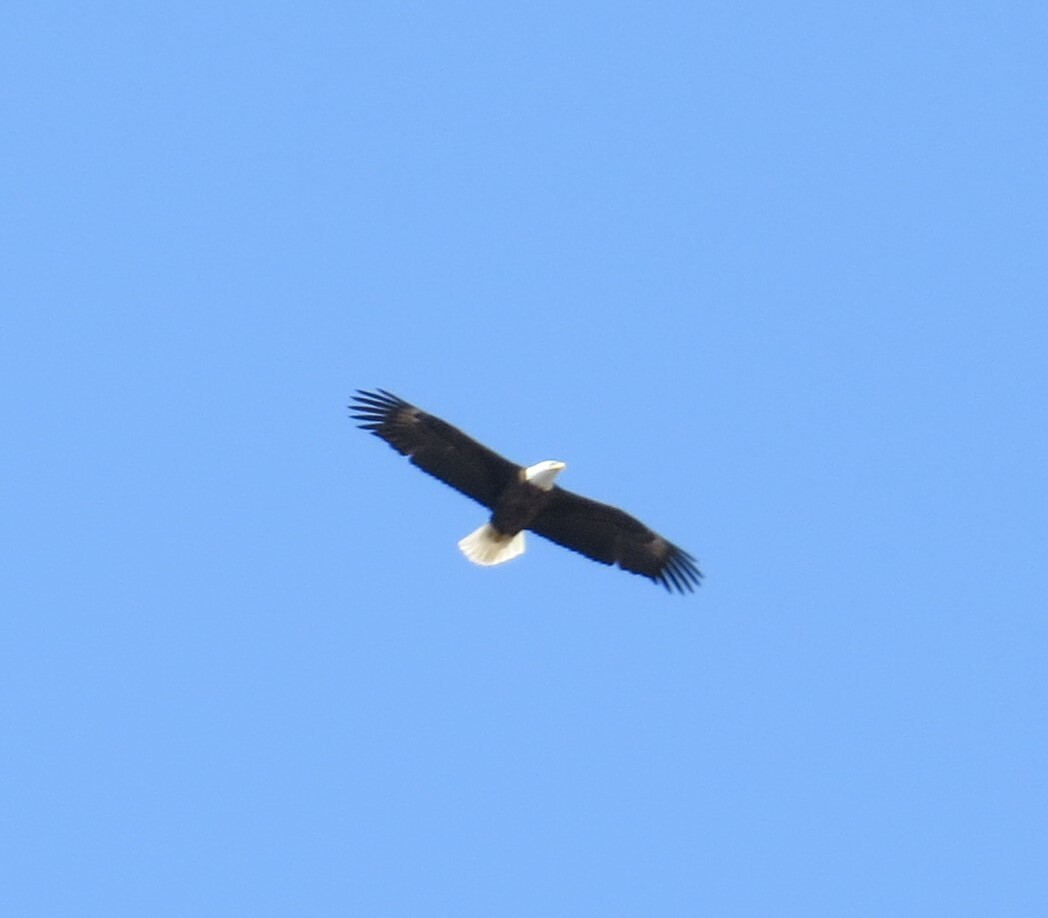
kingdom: Animalia
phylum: Chordata
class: Aves
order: Accipitriformes
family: Accipitridae
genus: Haliaeetus
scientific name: Haliaeetus leucocephalus
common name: Bald eagle
